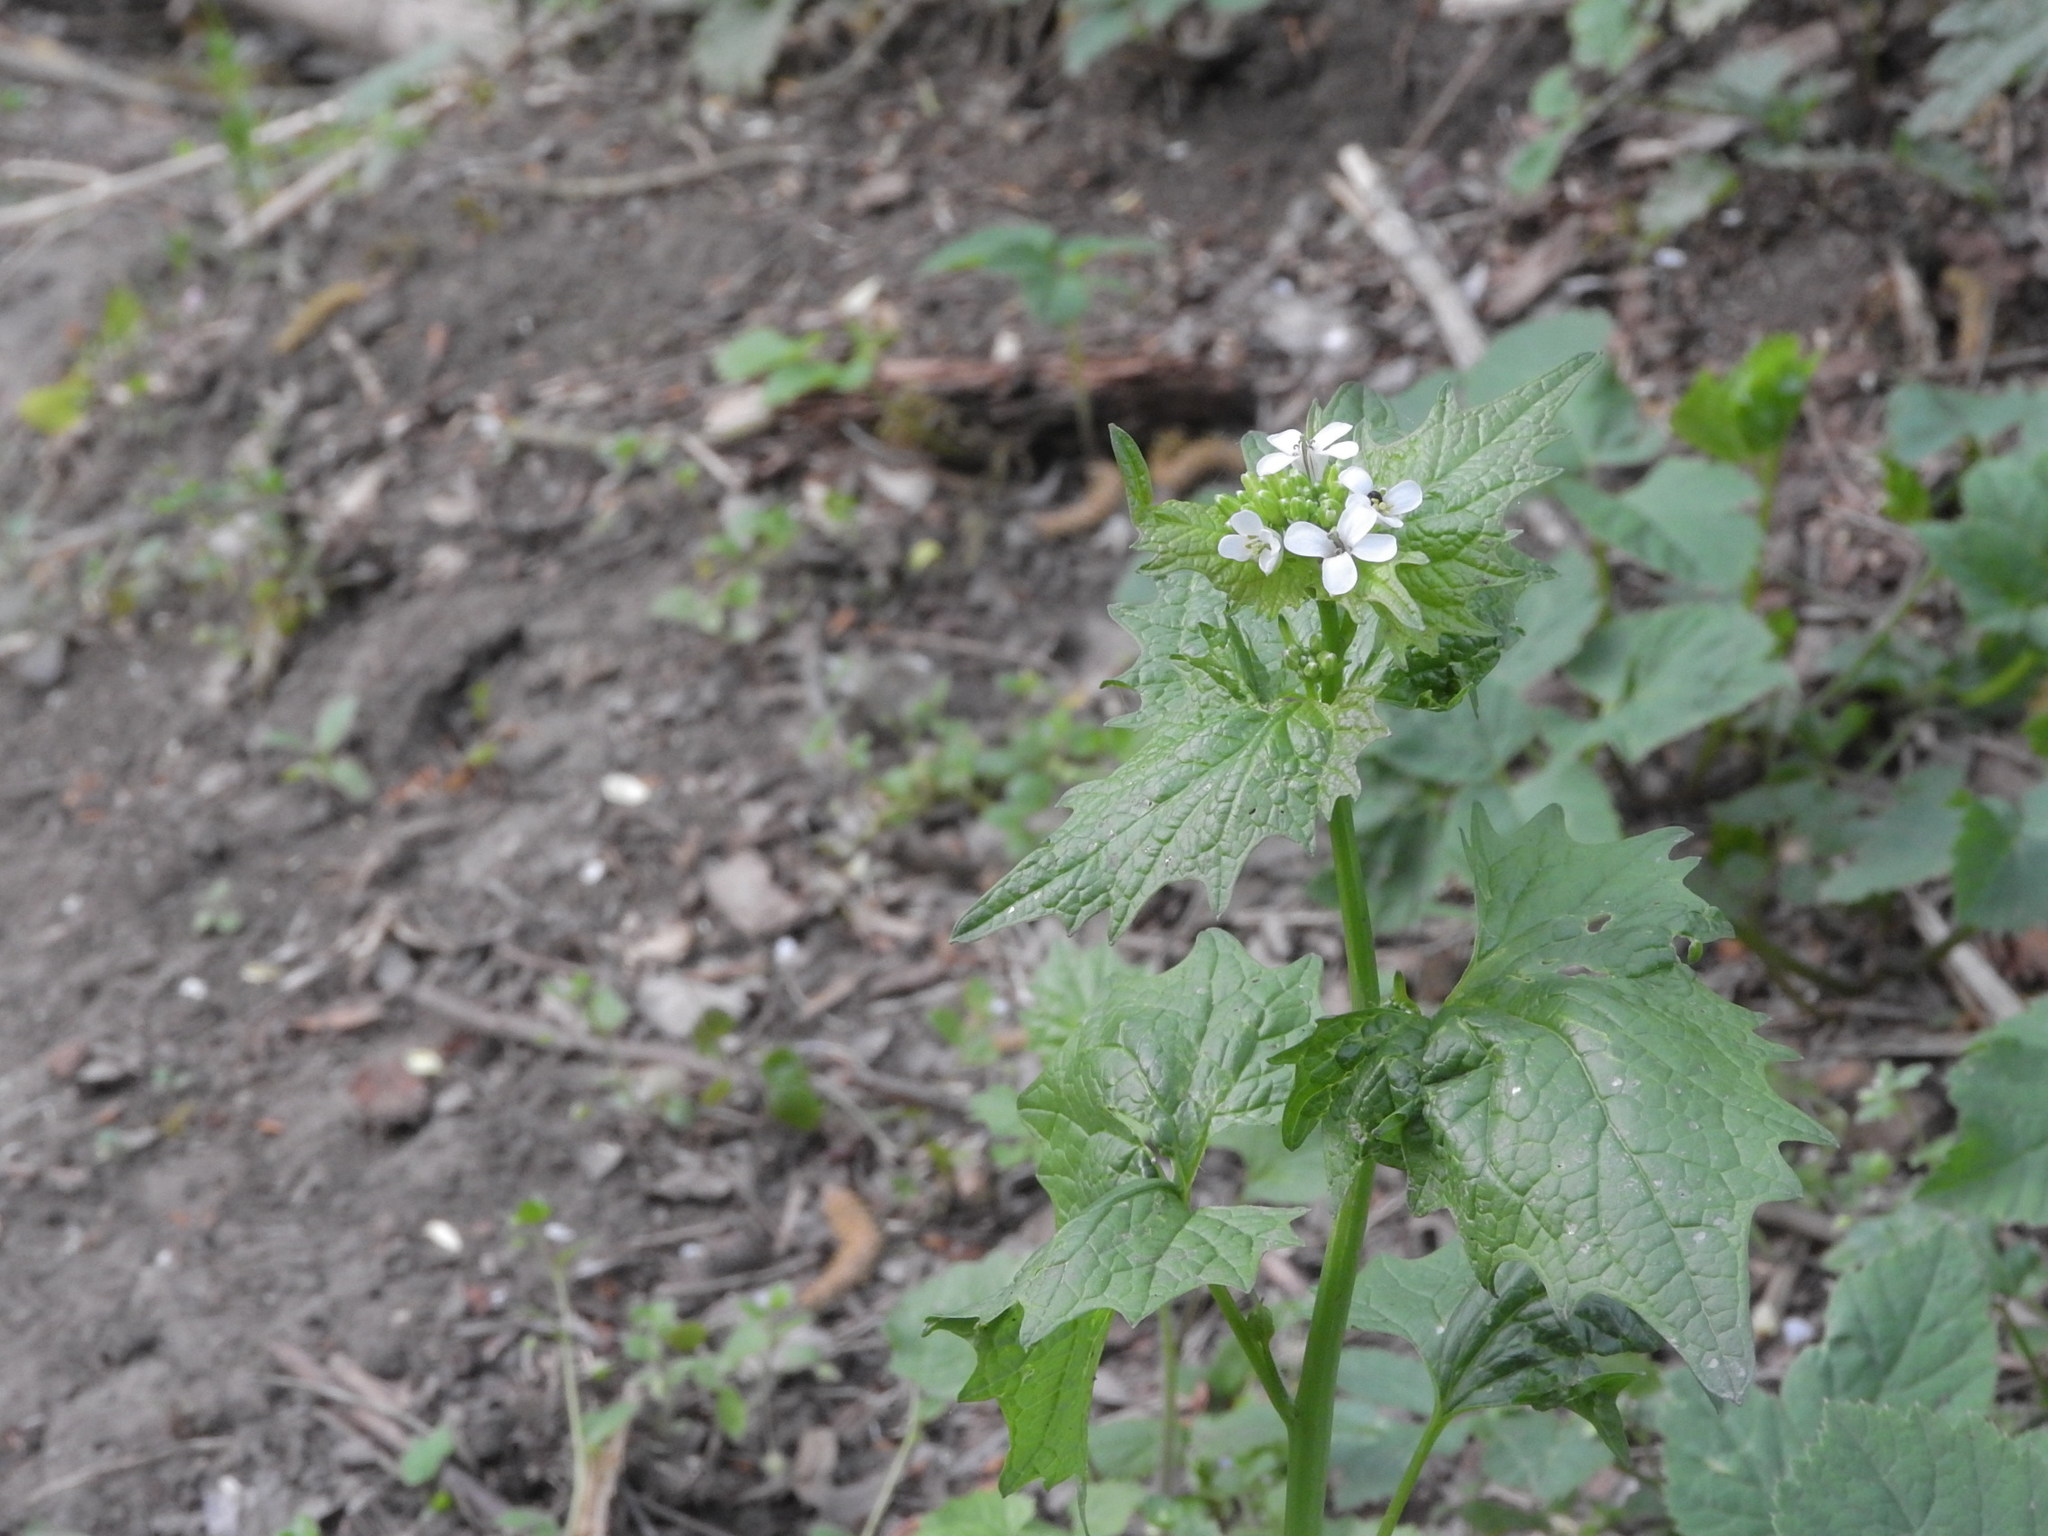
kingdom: Plantae
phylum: Tracheophyta
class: Magnoliopsida
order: Brassicales
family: Brassicaceae
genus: Alliaria
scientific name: Alliaria petiolata
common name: Garlic mustard
